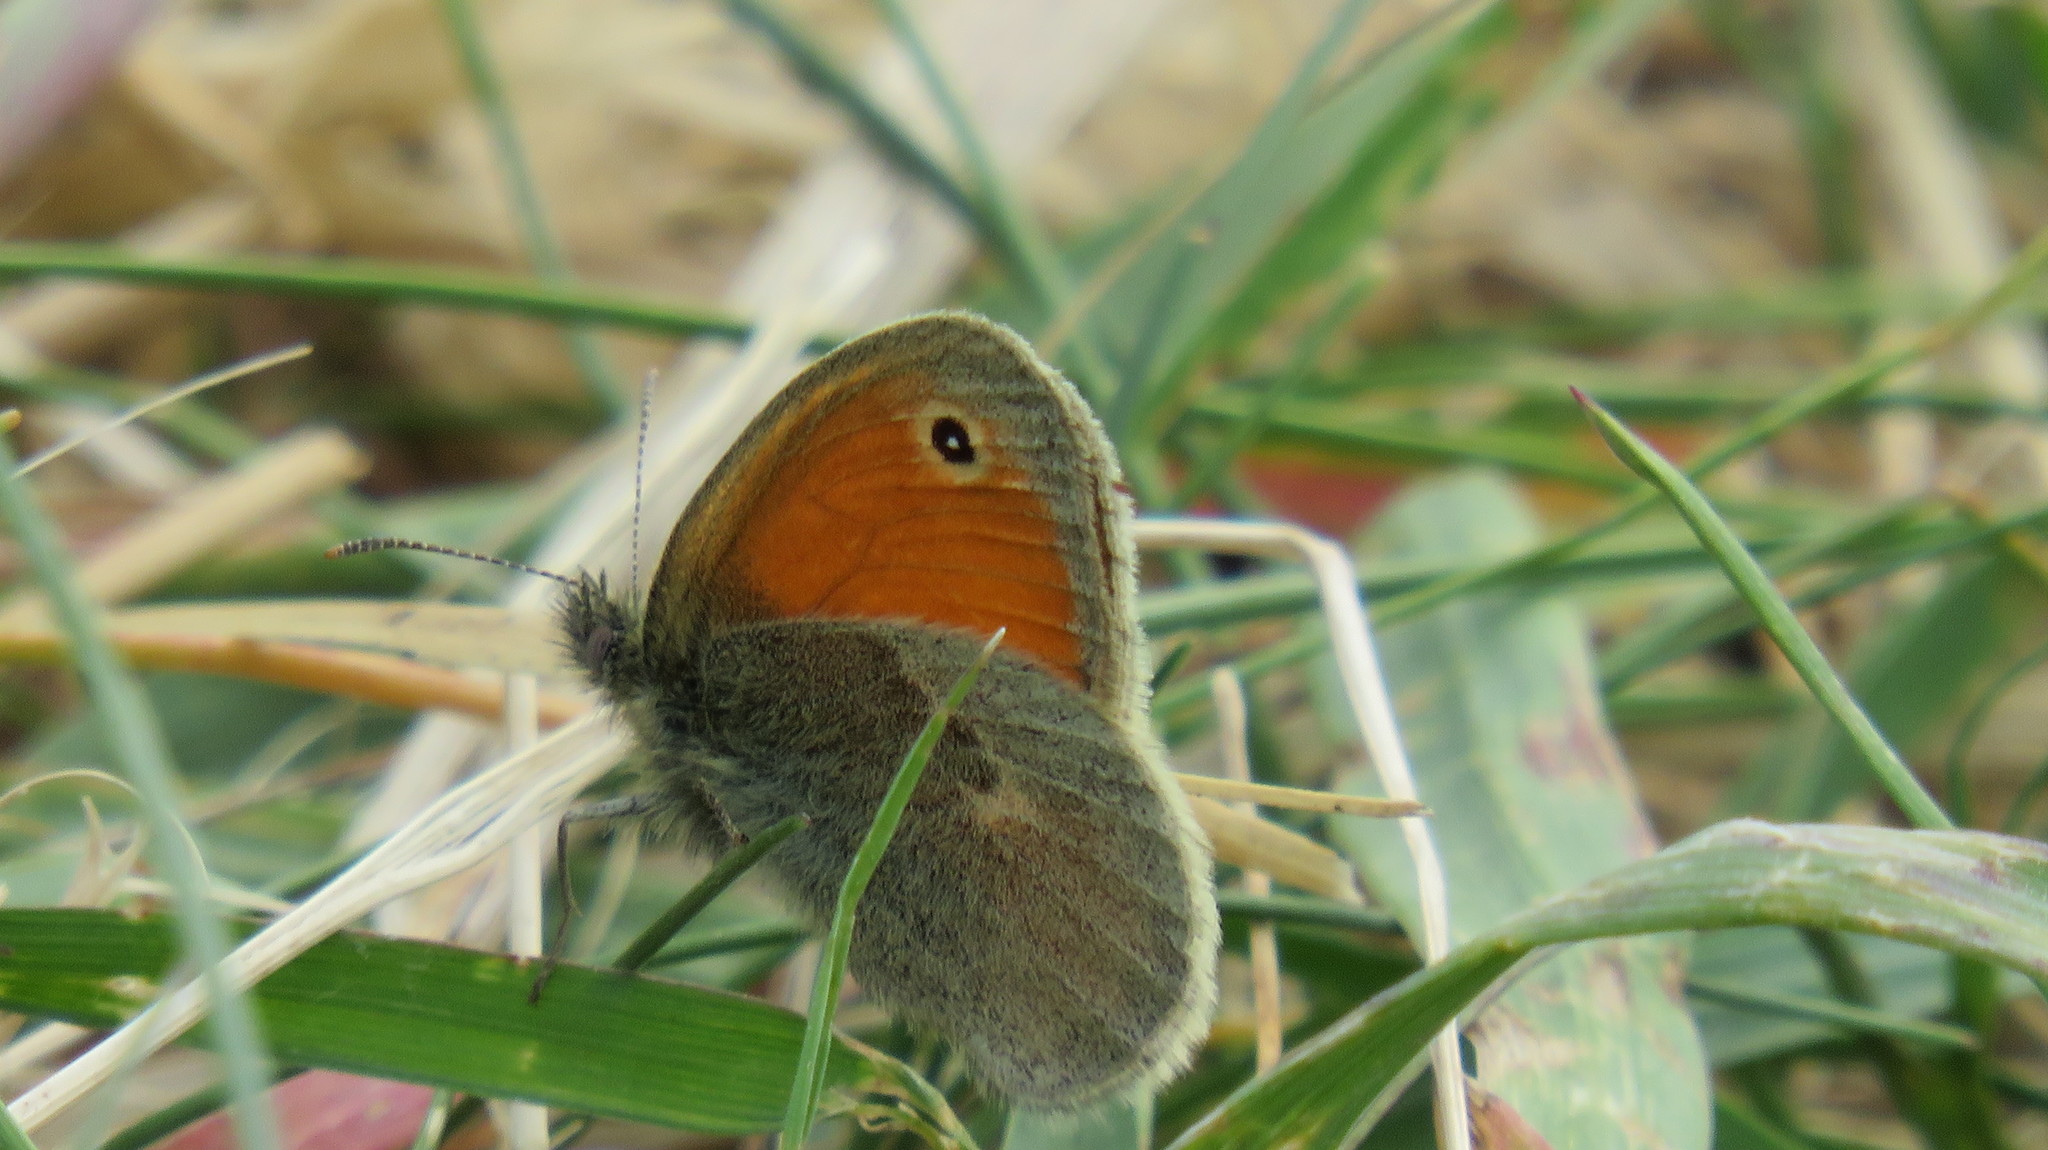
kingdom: Animalia
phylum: Arthropoda
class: Insecta
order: Lepidoptera
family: Nymphalidae
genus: Coenonympha
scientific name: Coenonympha pamphilus
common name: Small heath
